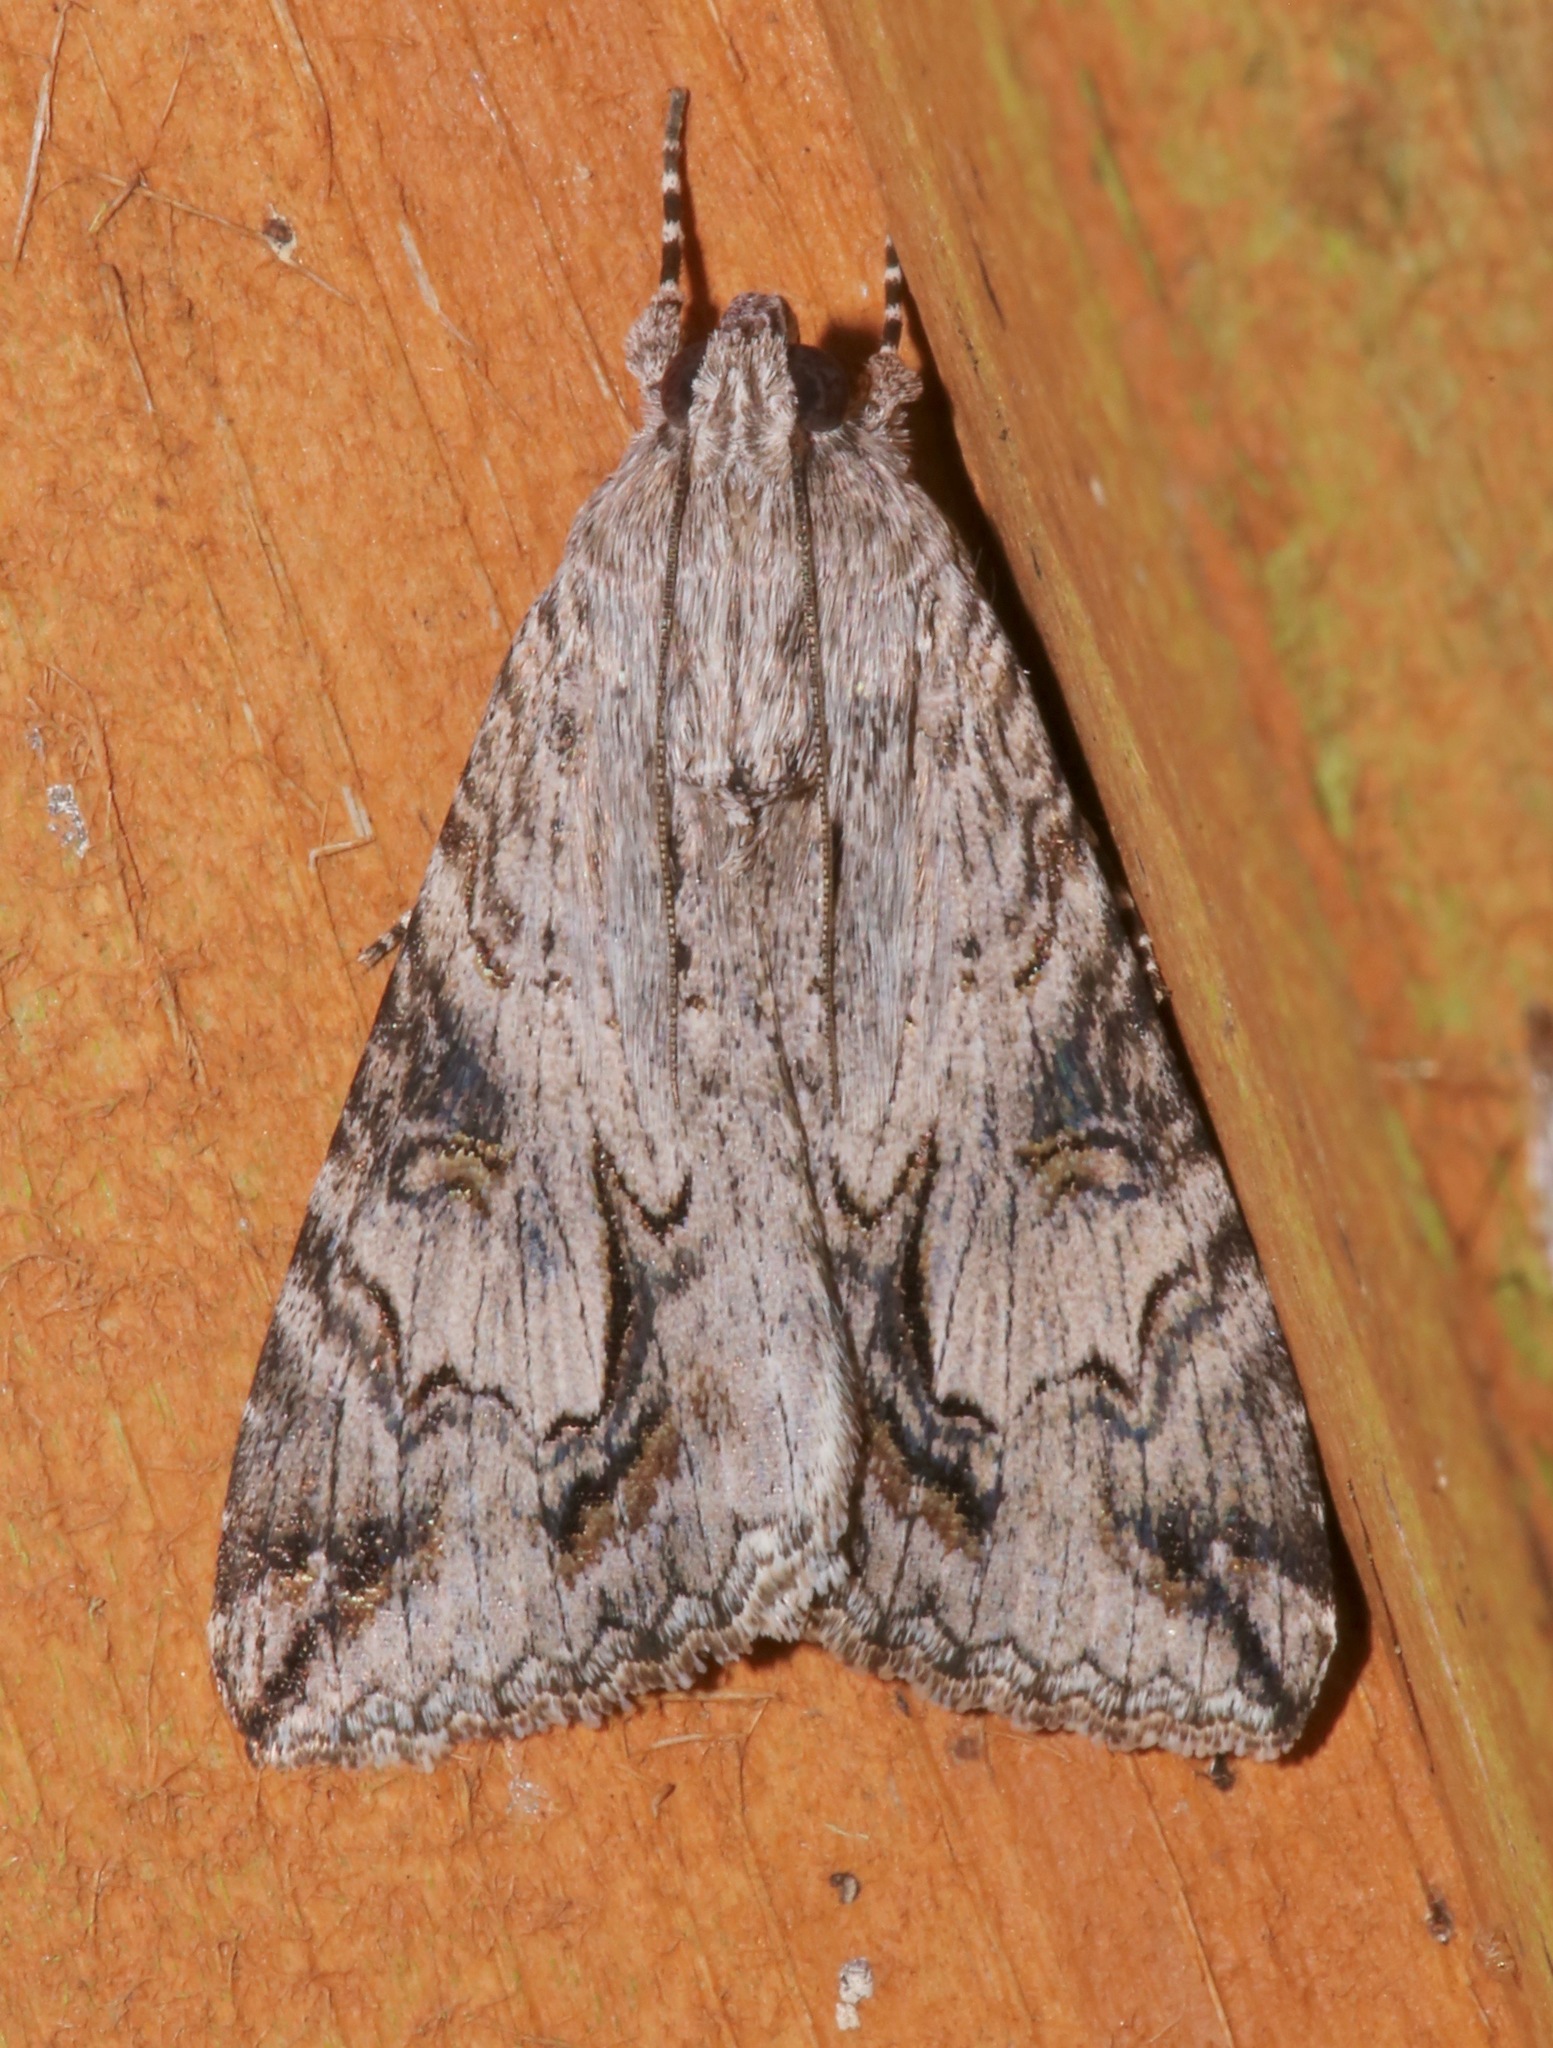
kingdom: Animalia
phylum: Arthropoda
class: Insecta
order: Lepidoptera
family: Erebidae
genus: Melipotis
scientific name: Melipotis jucunda
